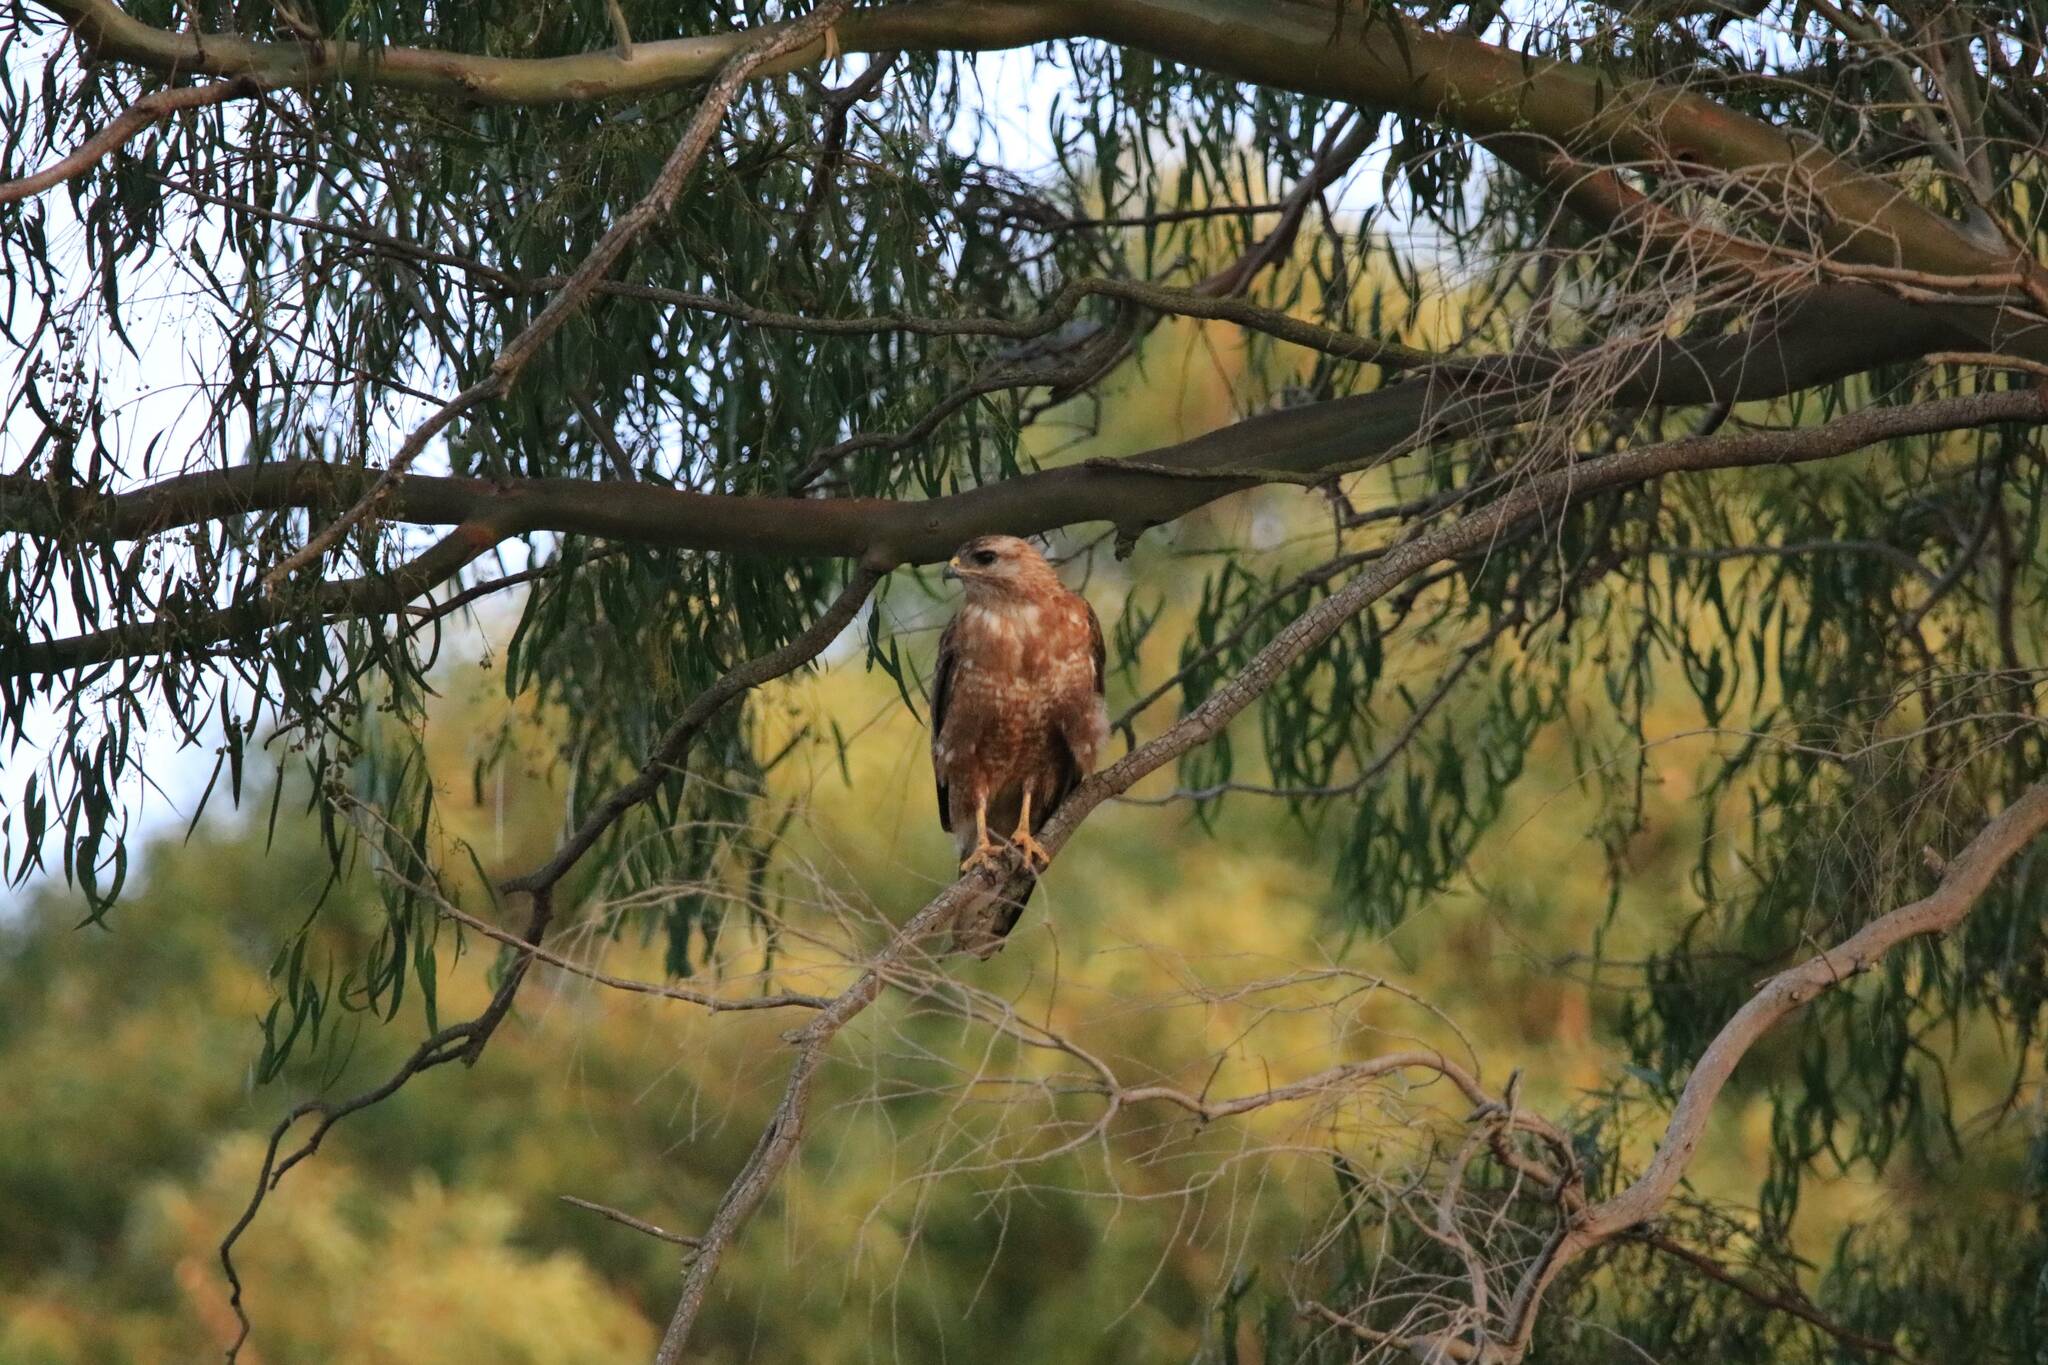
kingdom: Animalia
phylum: Chordata
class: Aves
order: Accipitriformes
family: Accipitridae
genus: Buteo
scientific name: Buteo rufinus
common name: Long-legged buzzard
